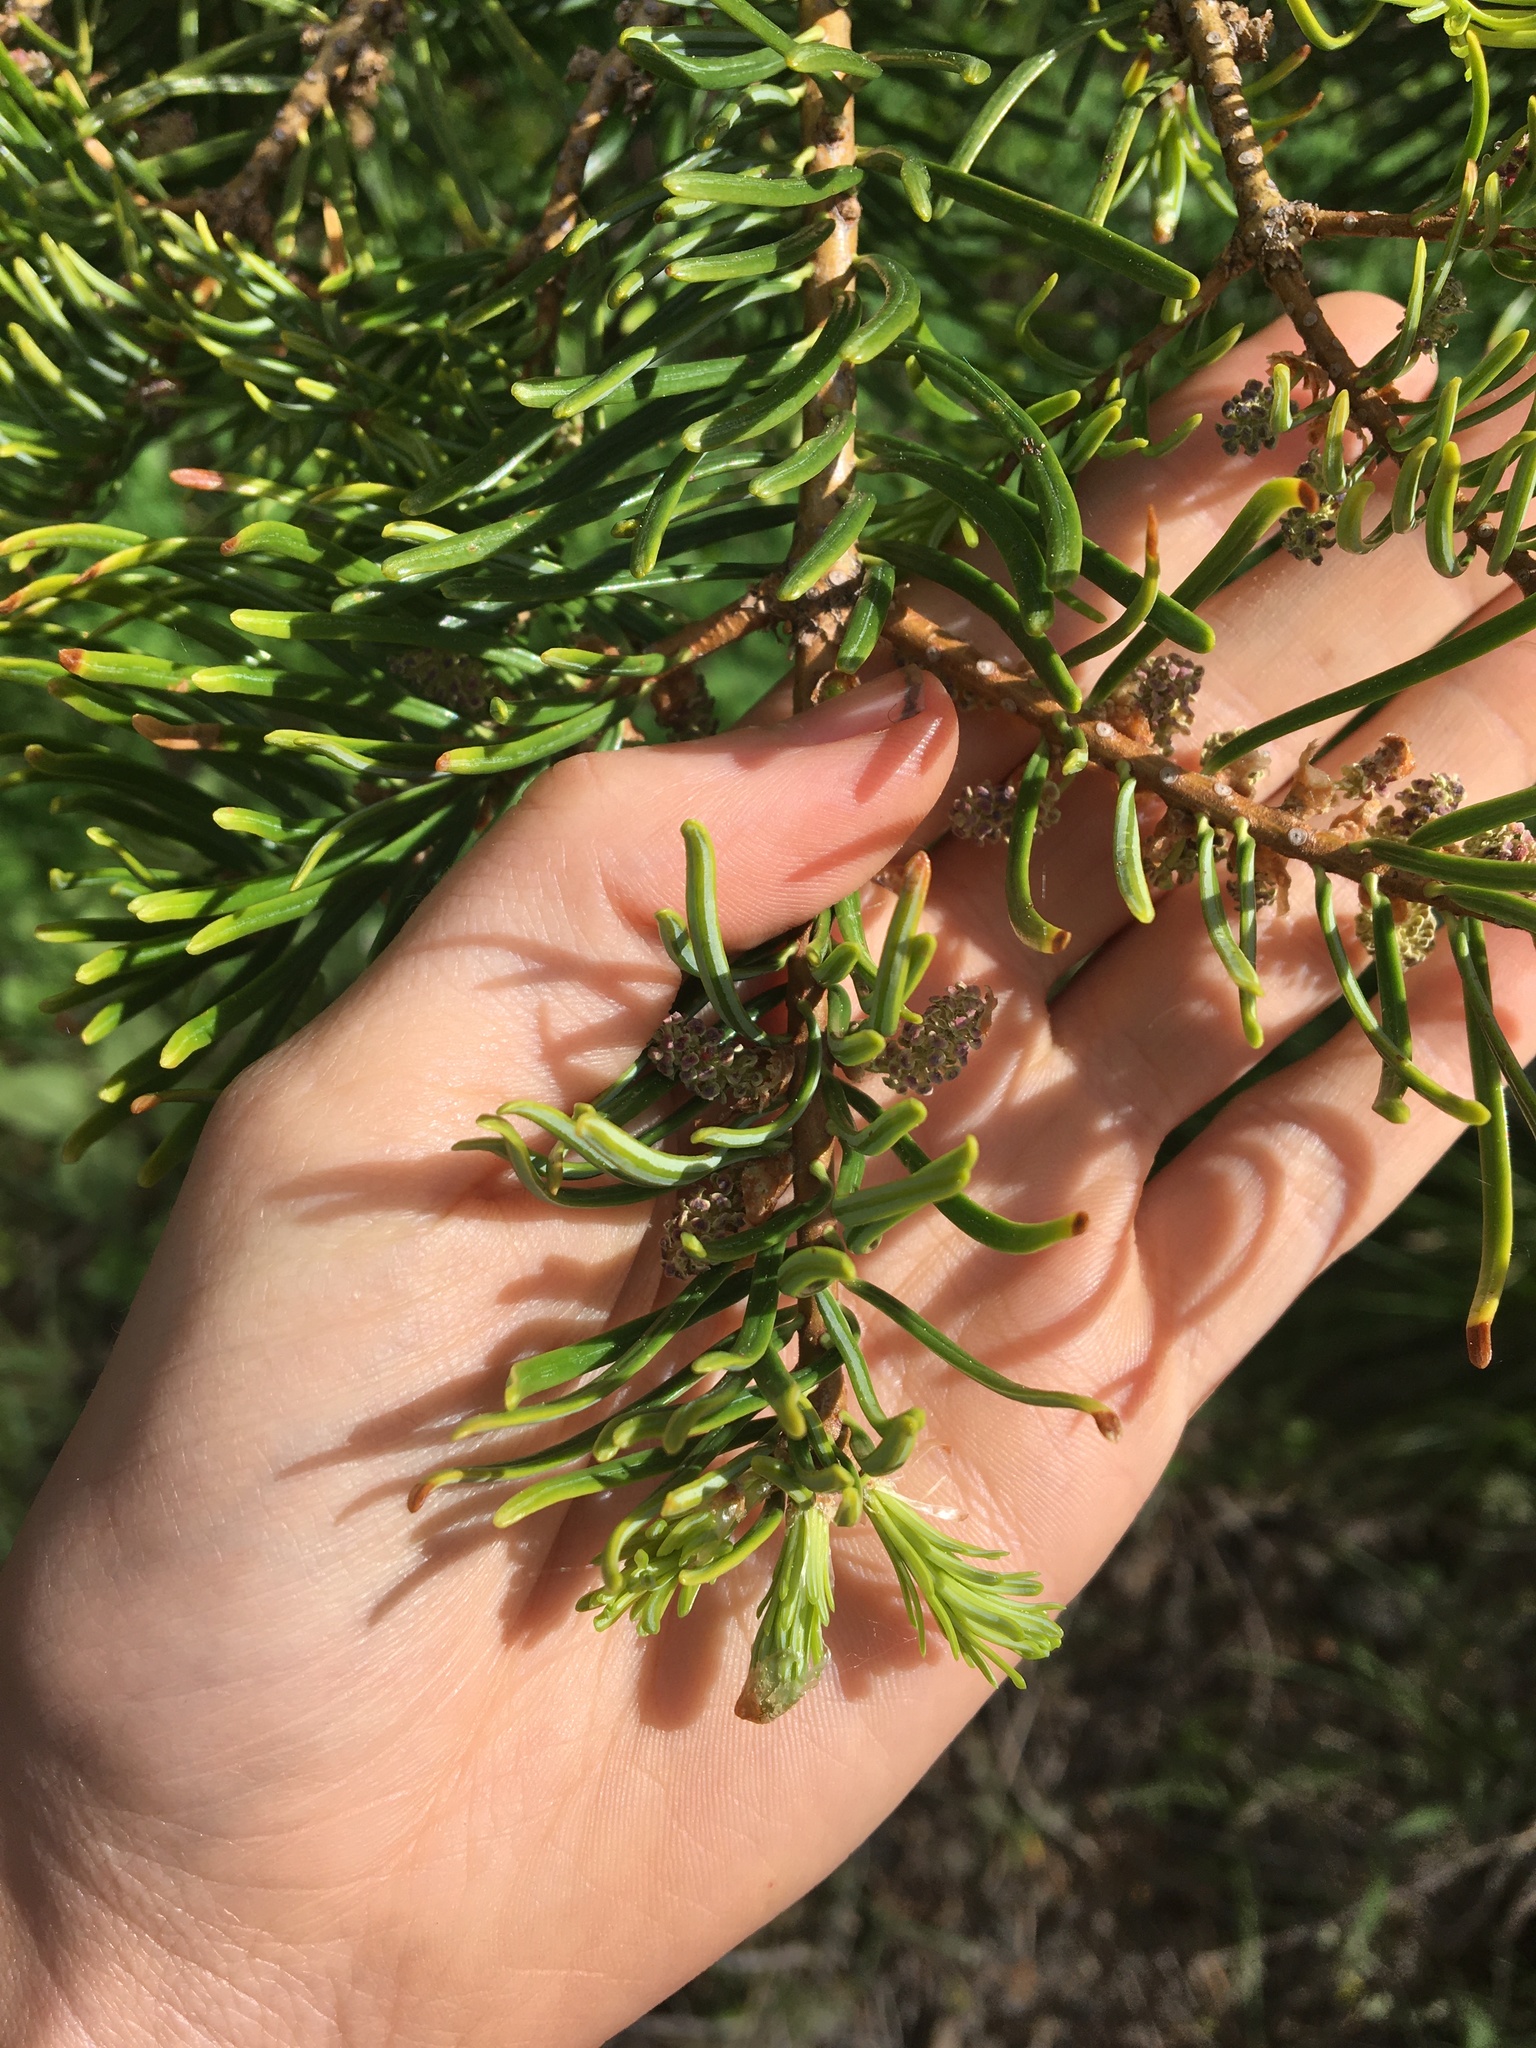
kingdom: Plantae
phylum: Tracheophyta
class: Pinopsida
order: Pinales
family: Pinaceae
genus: Abies
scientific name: Abies concolor
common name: Colorado fir
